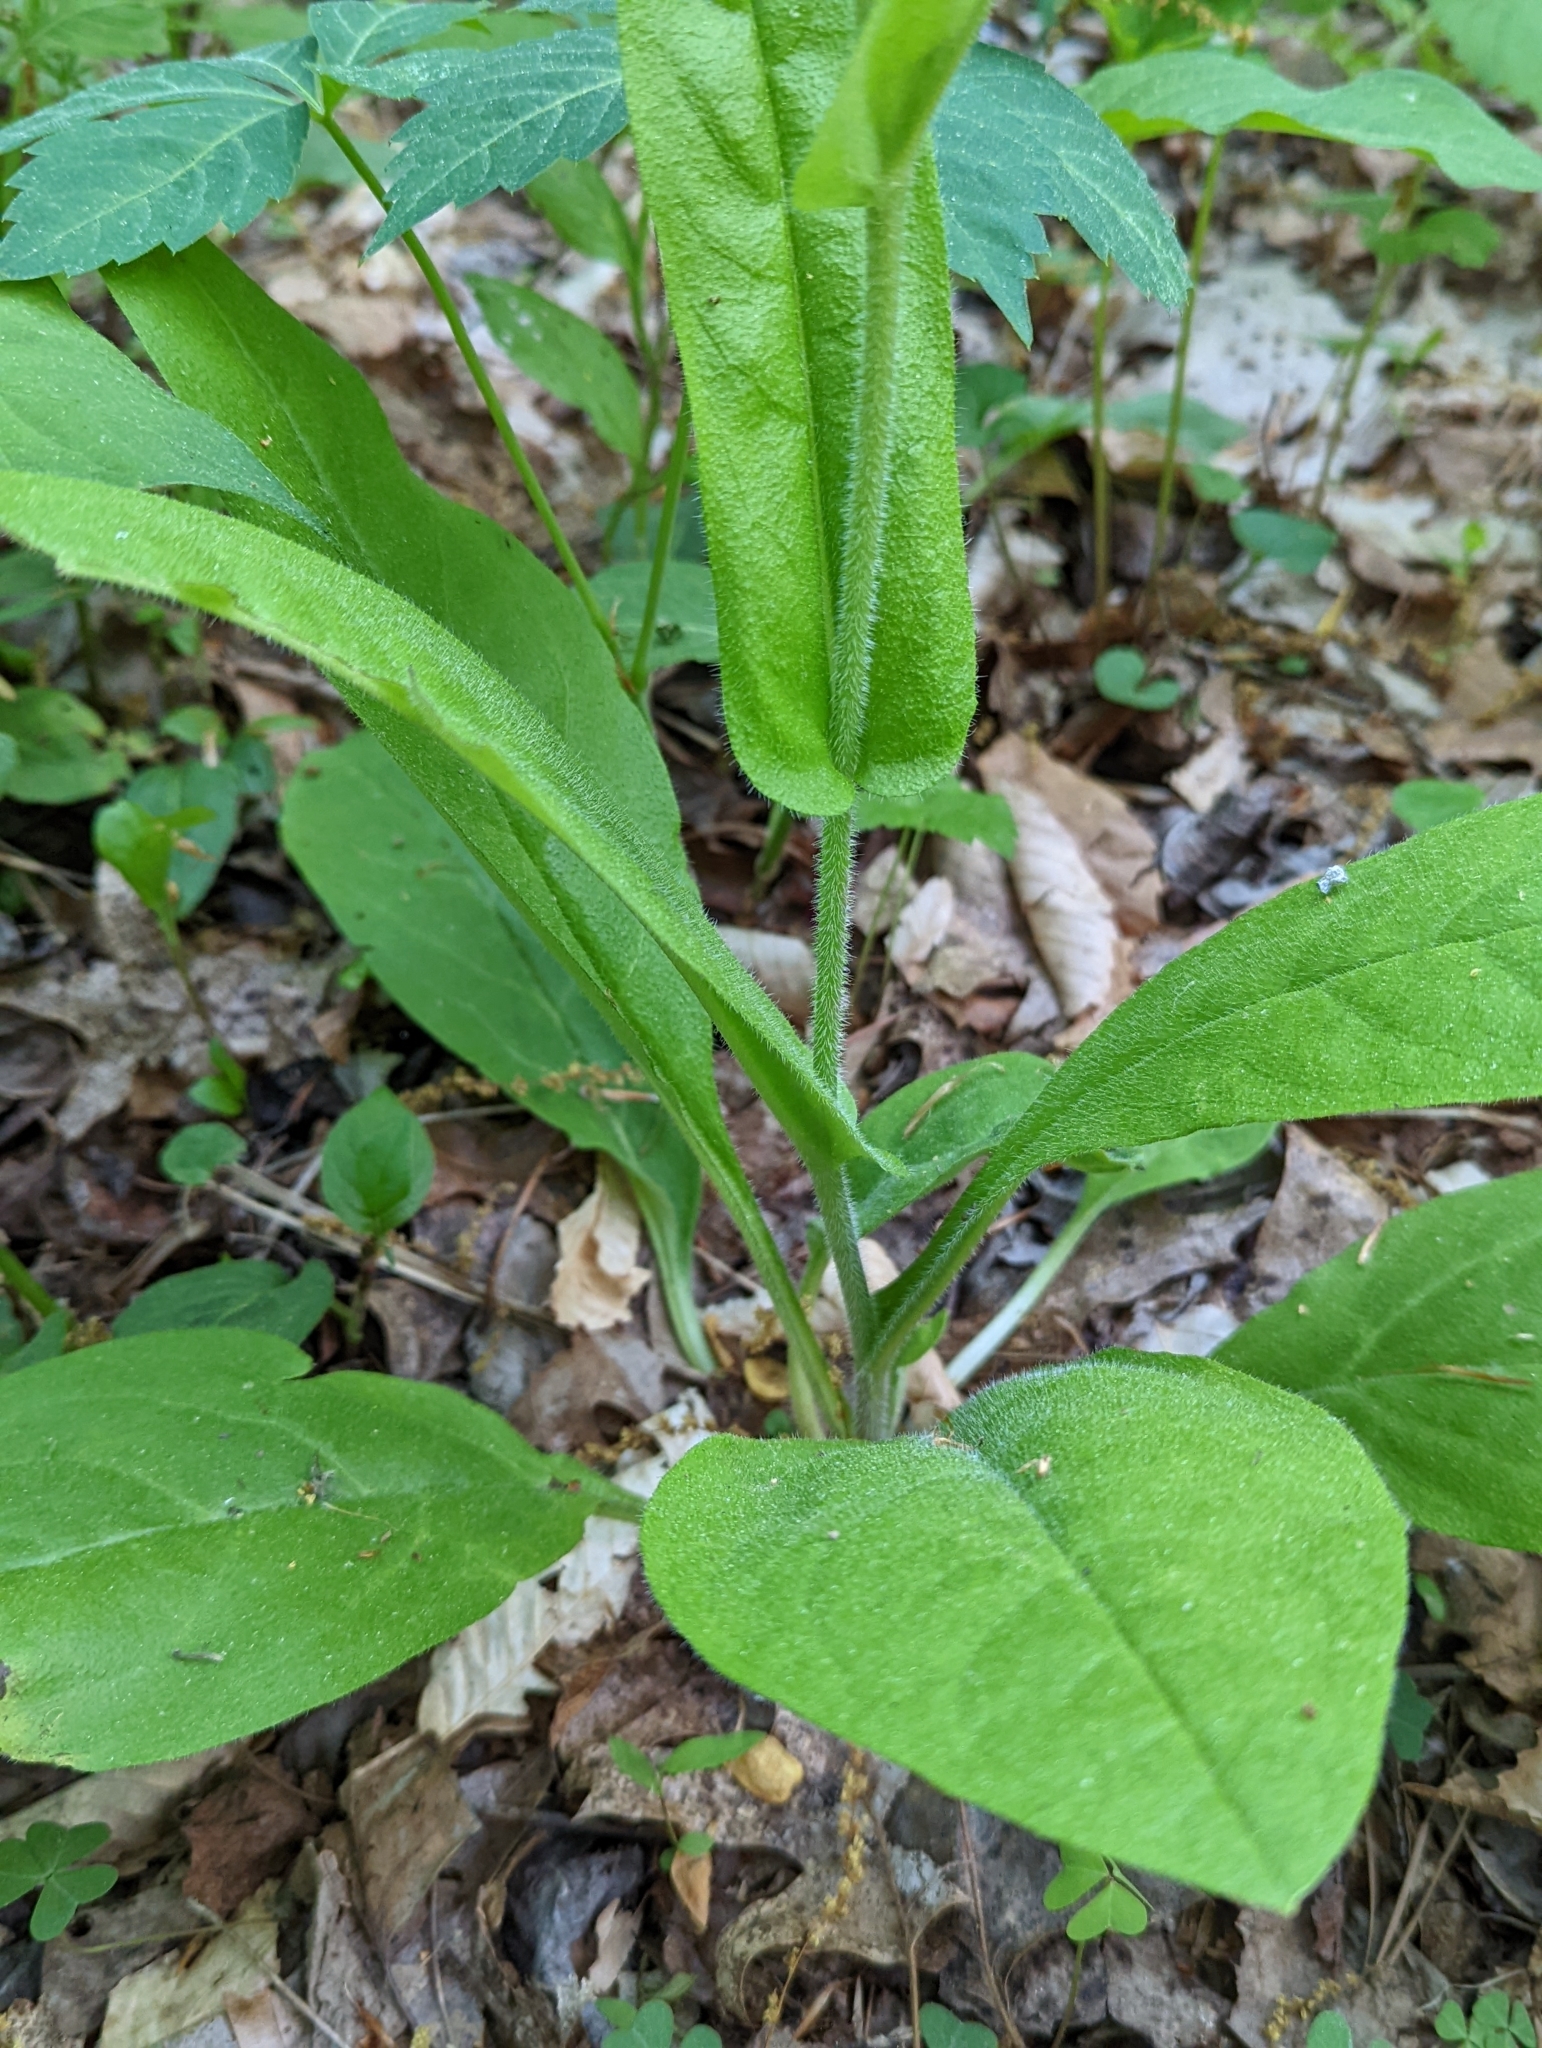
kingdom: Plantae
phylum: Tracheophyta
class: Magnoliopsida
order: Boraginales
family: Boraginaceae
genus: Andersonglossum
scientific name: Andersonglossum virginianum
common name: Wild comfrey
